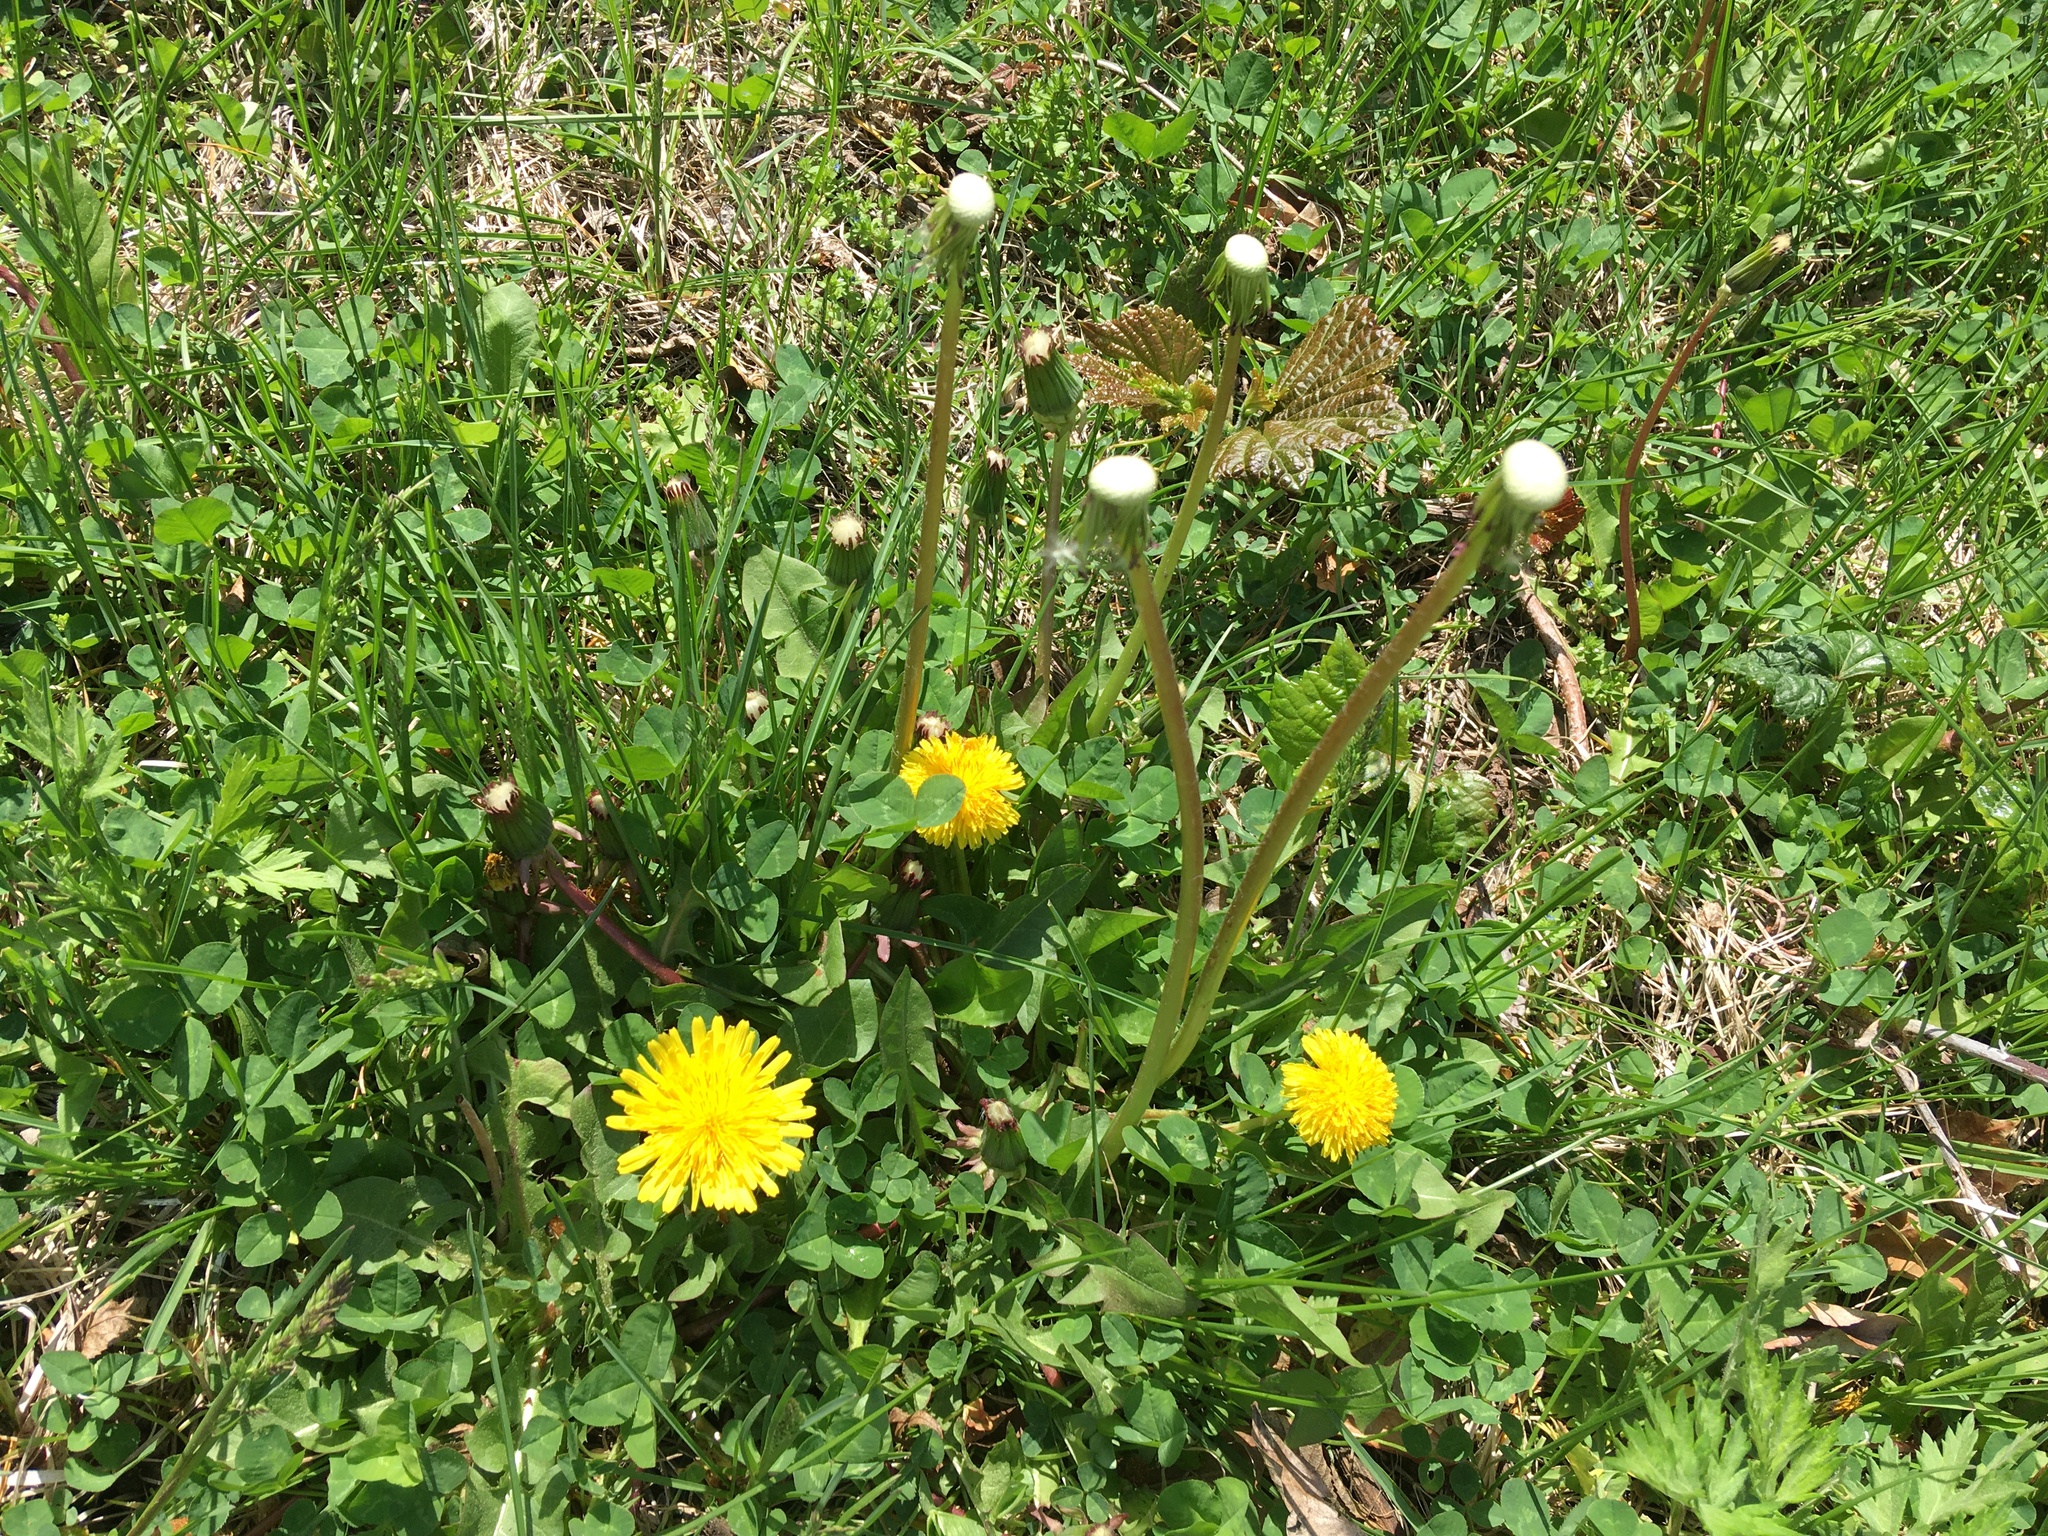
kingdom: Plantae
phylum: Tracheophyta
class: Magnoliopsida
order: Asterales
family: Asteraceae
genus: Taraxacum
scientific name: Taraxacum officinale
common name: Common dandelion
